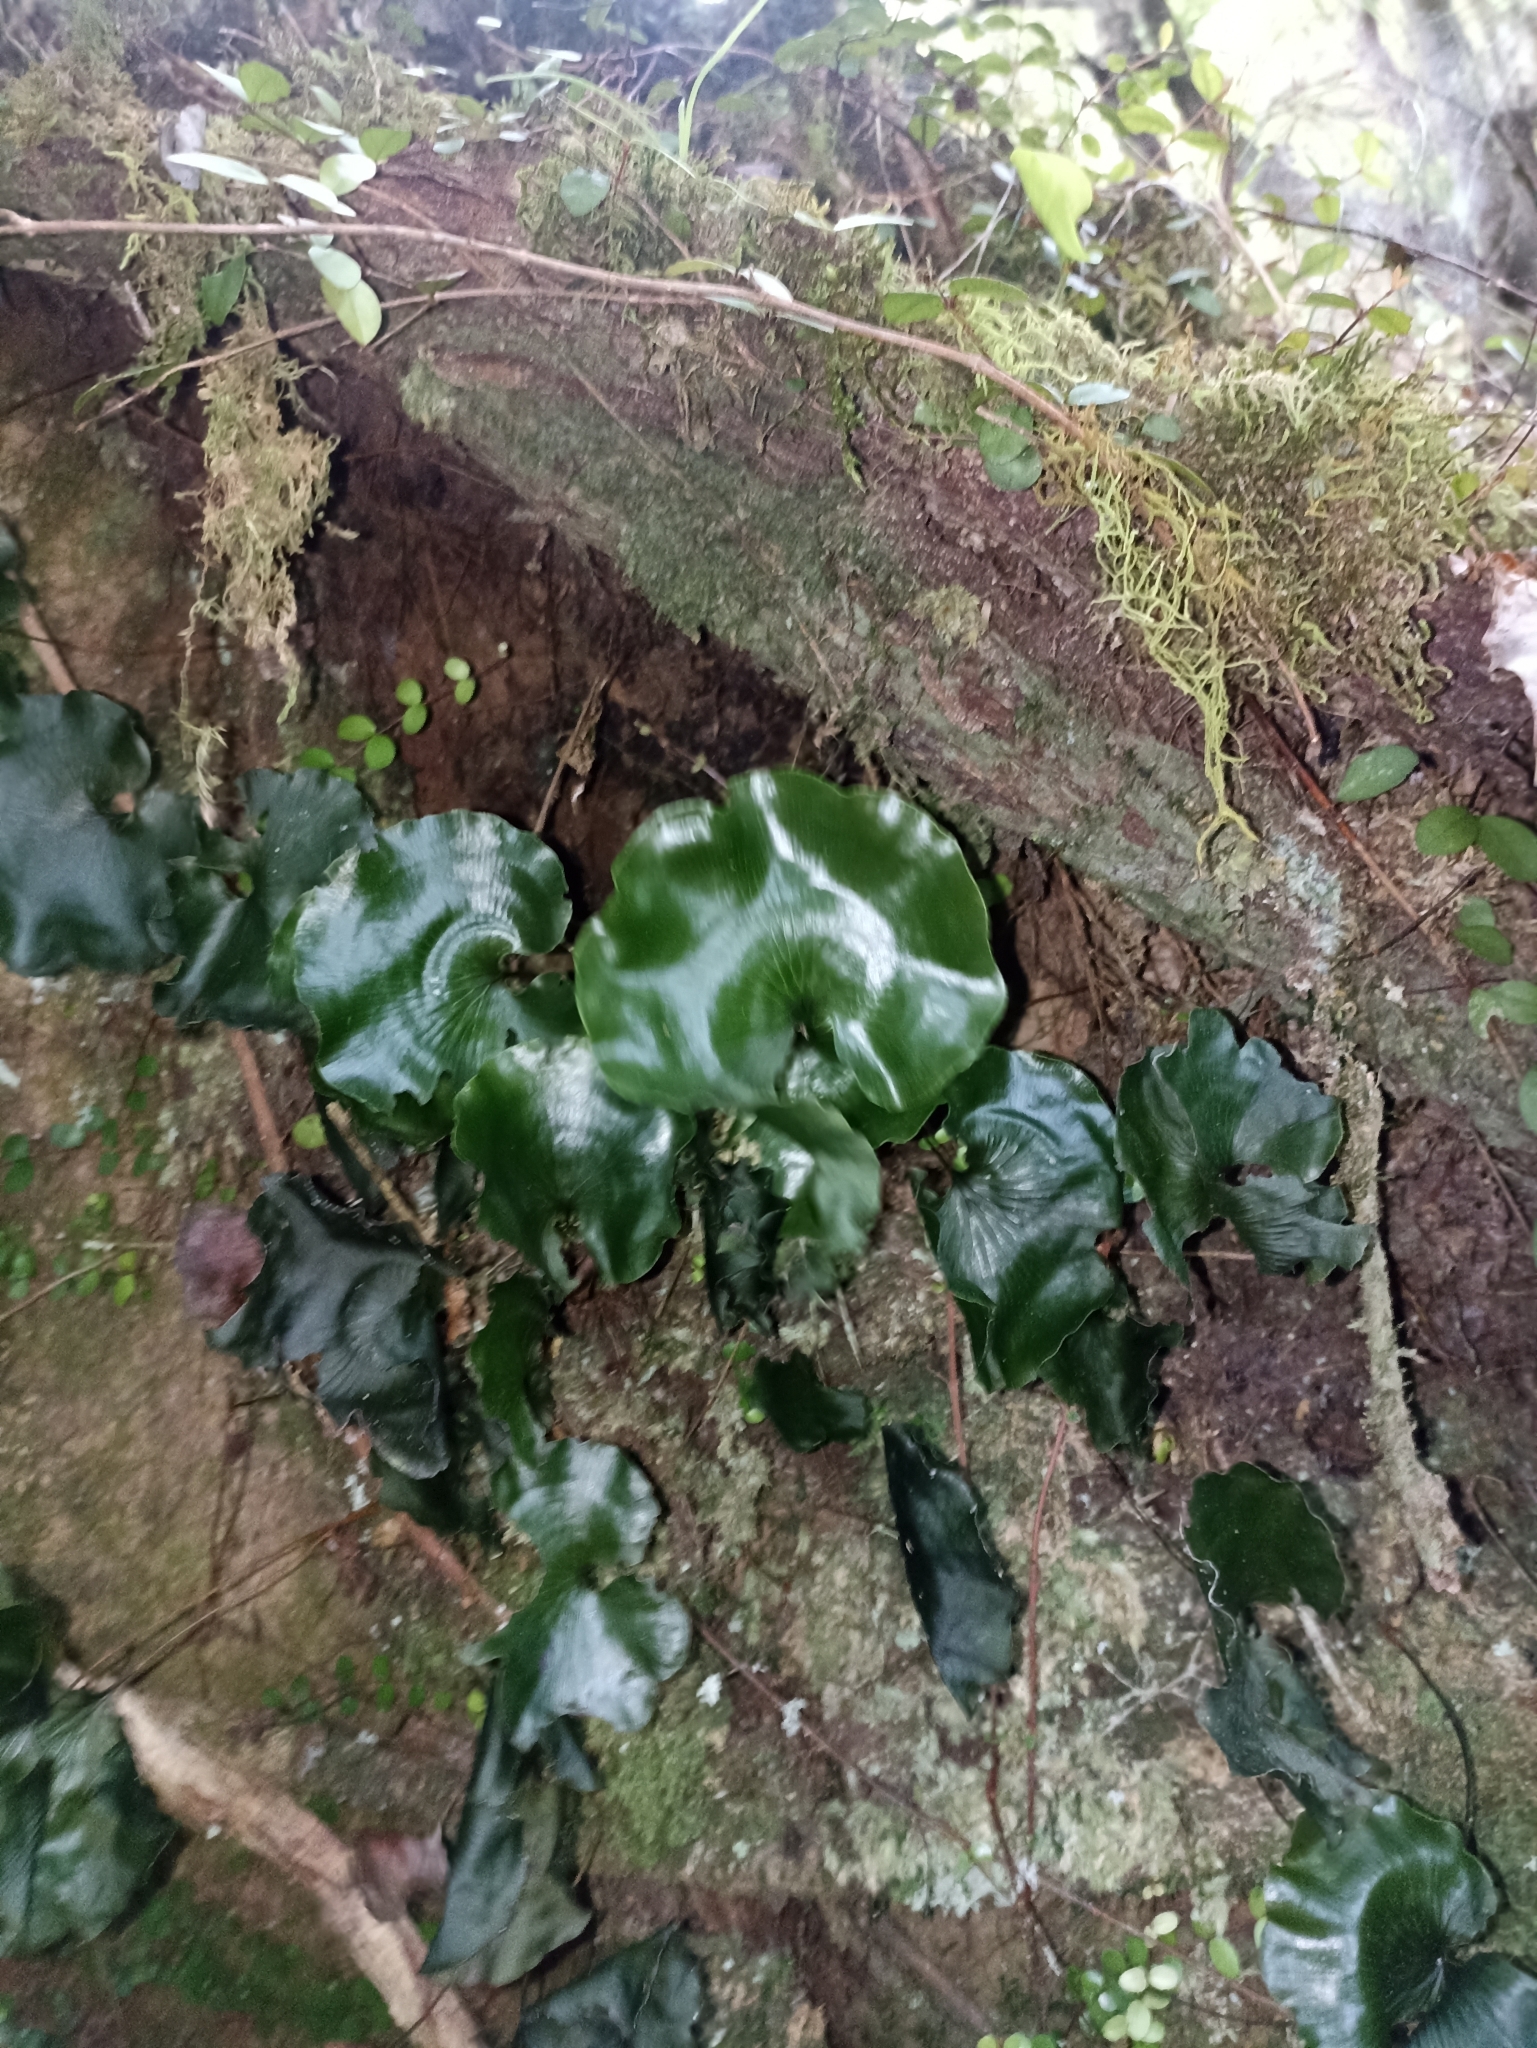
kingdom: Plantae
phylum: Tracheophyta
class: Polypodiopsida
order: Hymenophyllales
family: Hymenophyllaceae
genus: Hymenophyllum
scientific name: Hymenophyllum nephrophyllum
